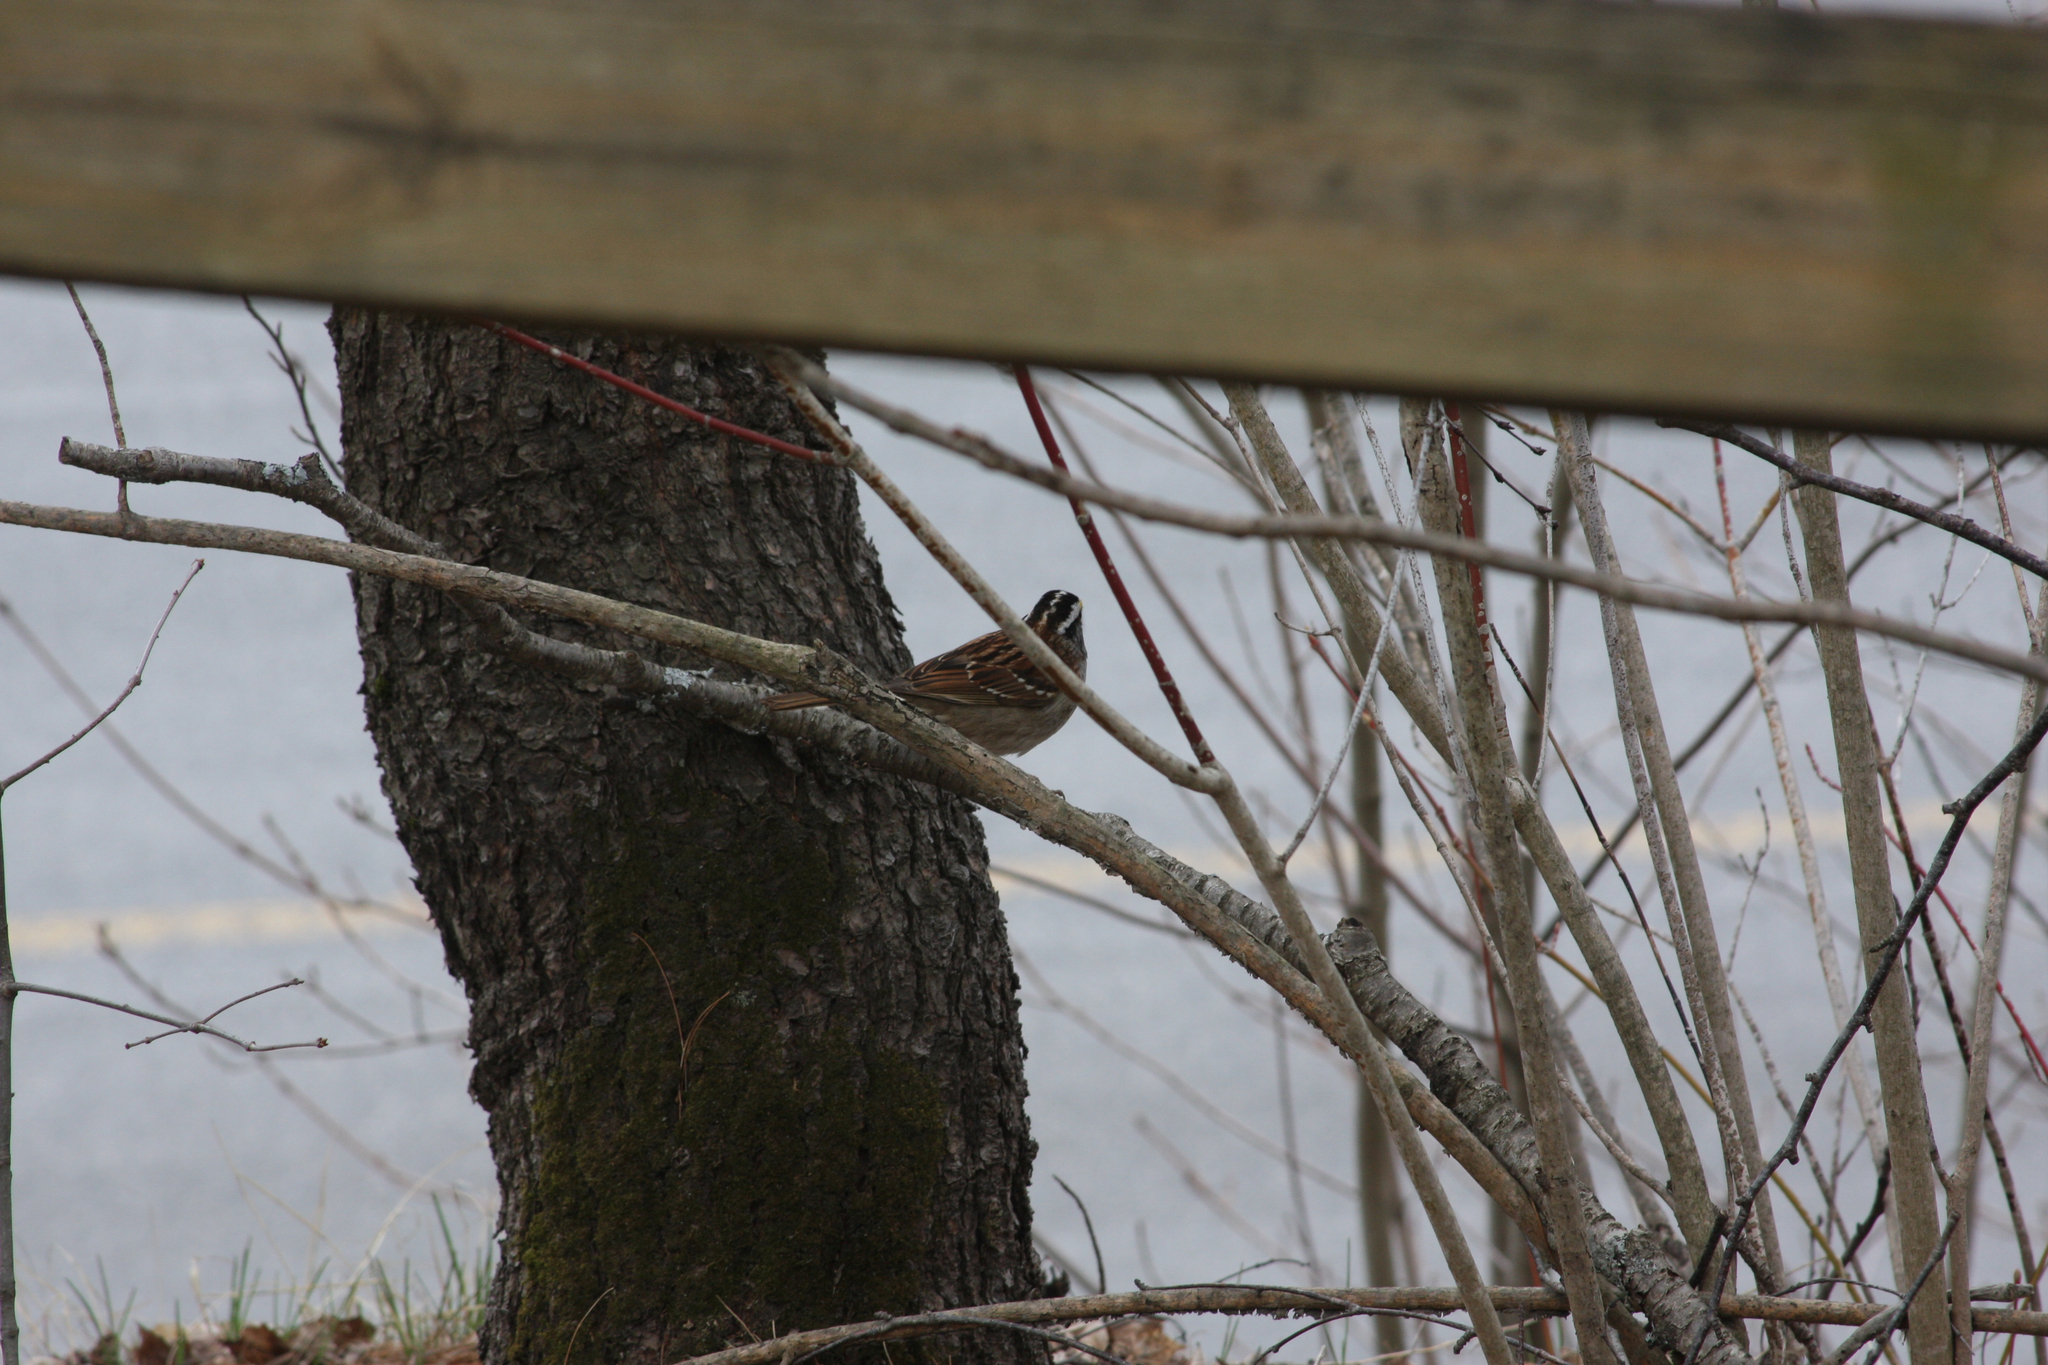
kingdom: Animalia
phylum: Chordata
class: Aves
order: Passeriformes
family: Passerellidae
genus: Zonotrichia
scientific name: Zonotrichia albicollis
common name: White-throated sparrow
